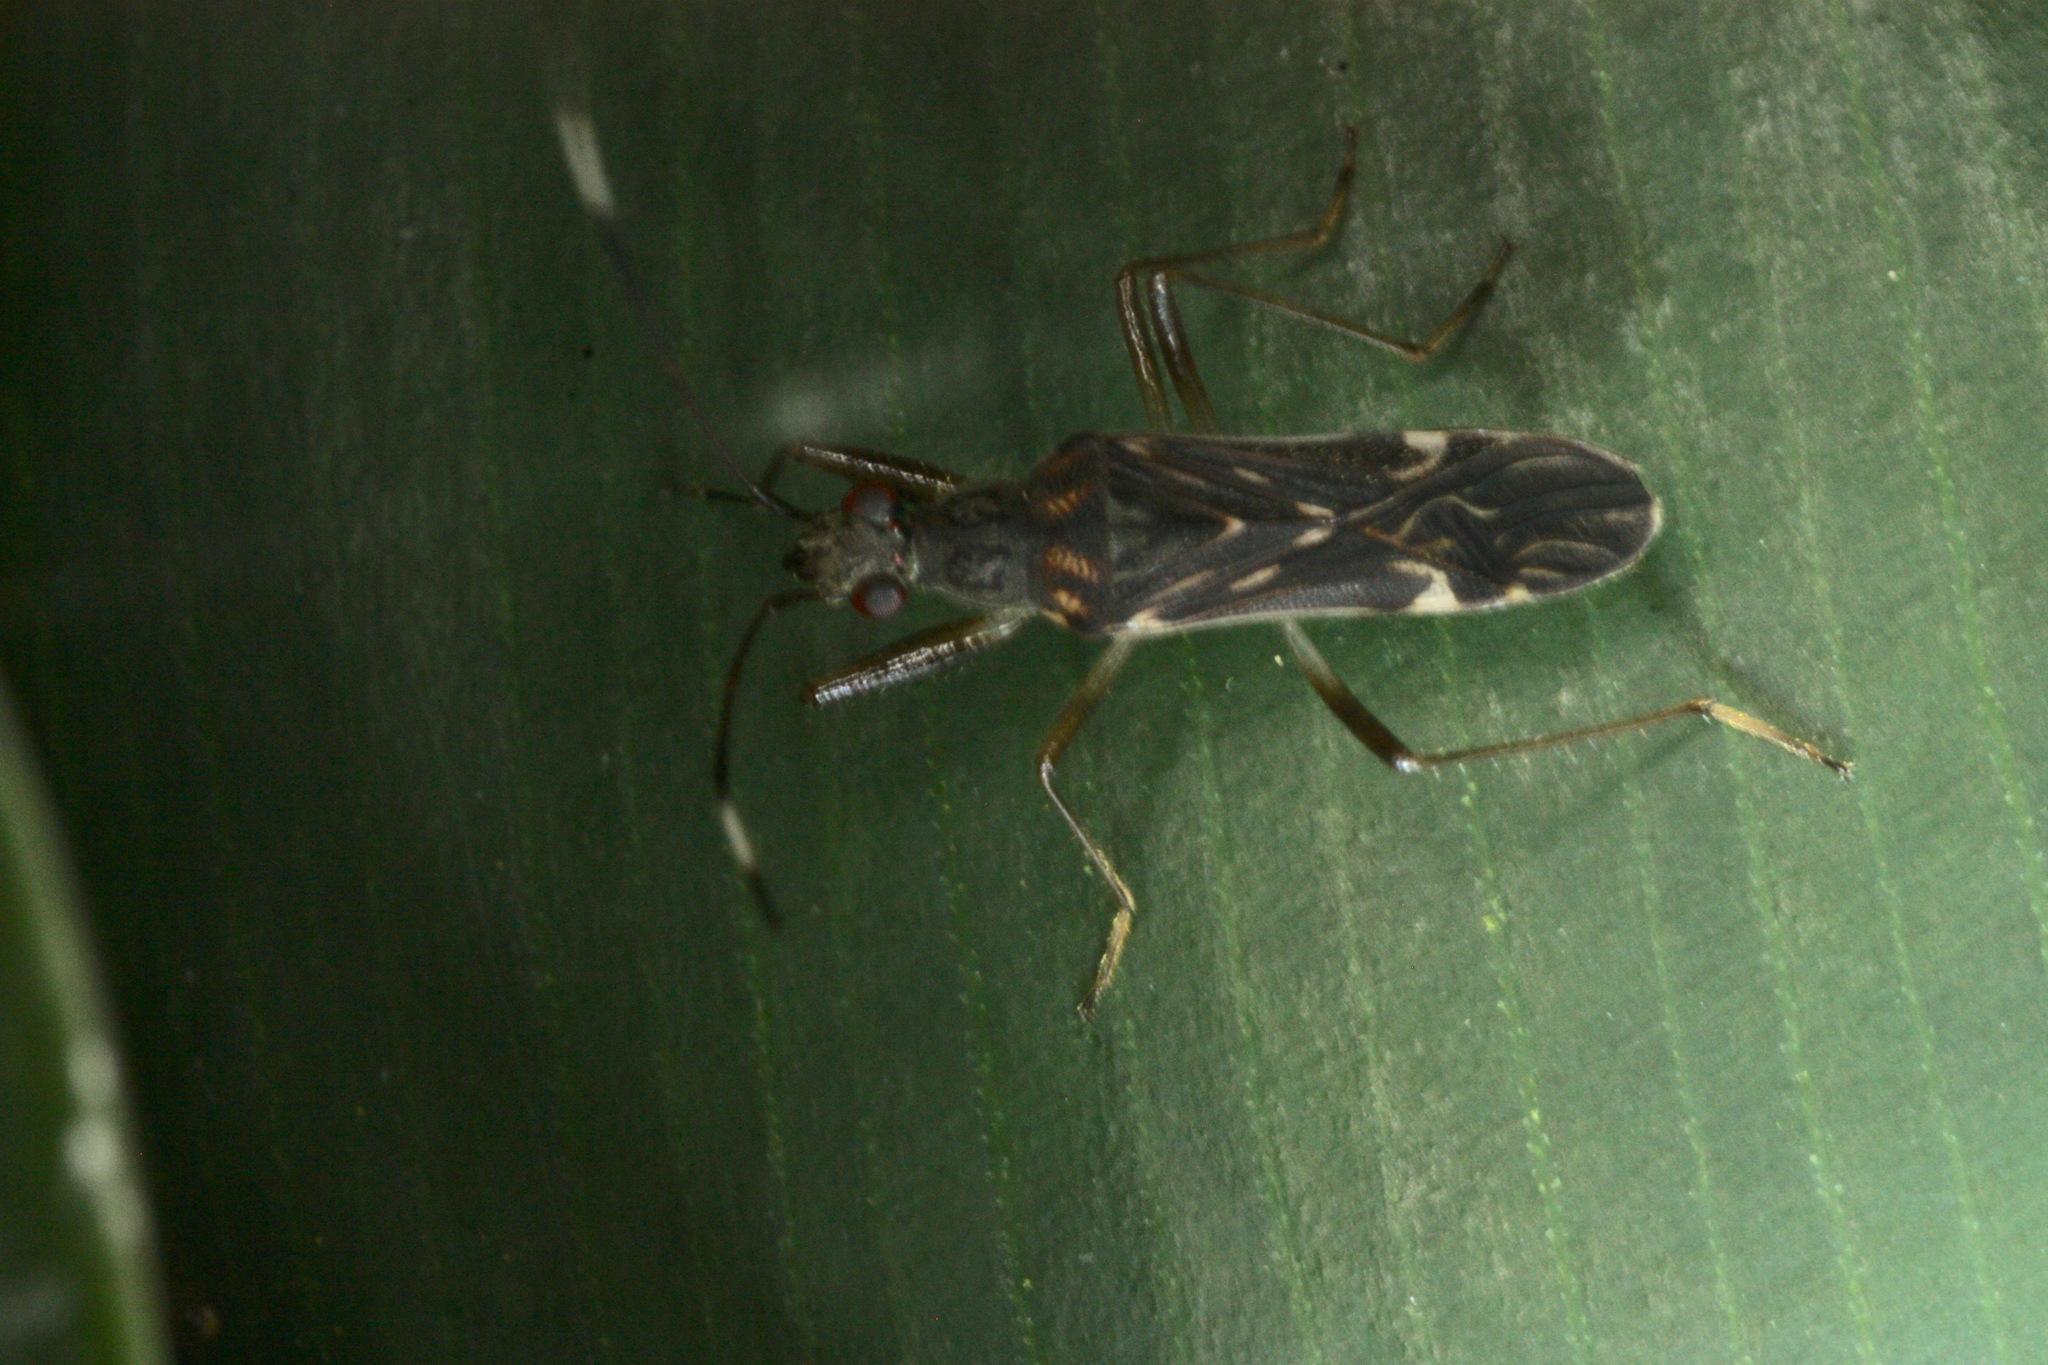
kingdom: Animalia
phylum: Arthropoda
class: Insecta
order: Hemiptera
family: Rhyparochromidae
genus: Neopamera
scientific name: Neopamera neotropicalis
